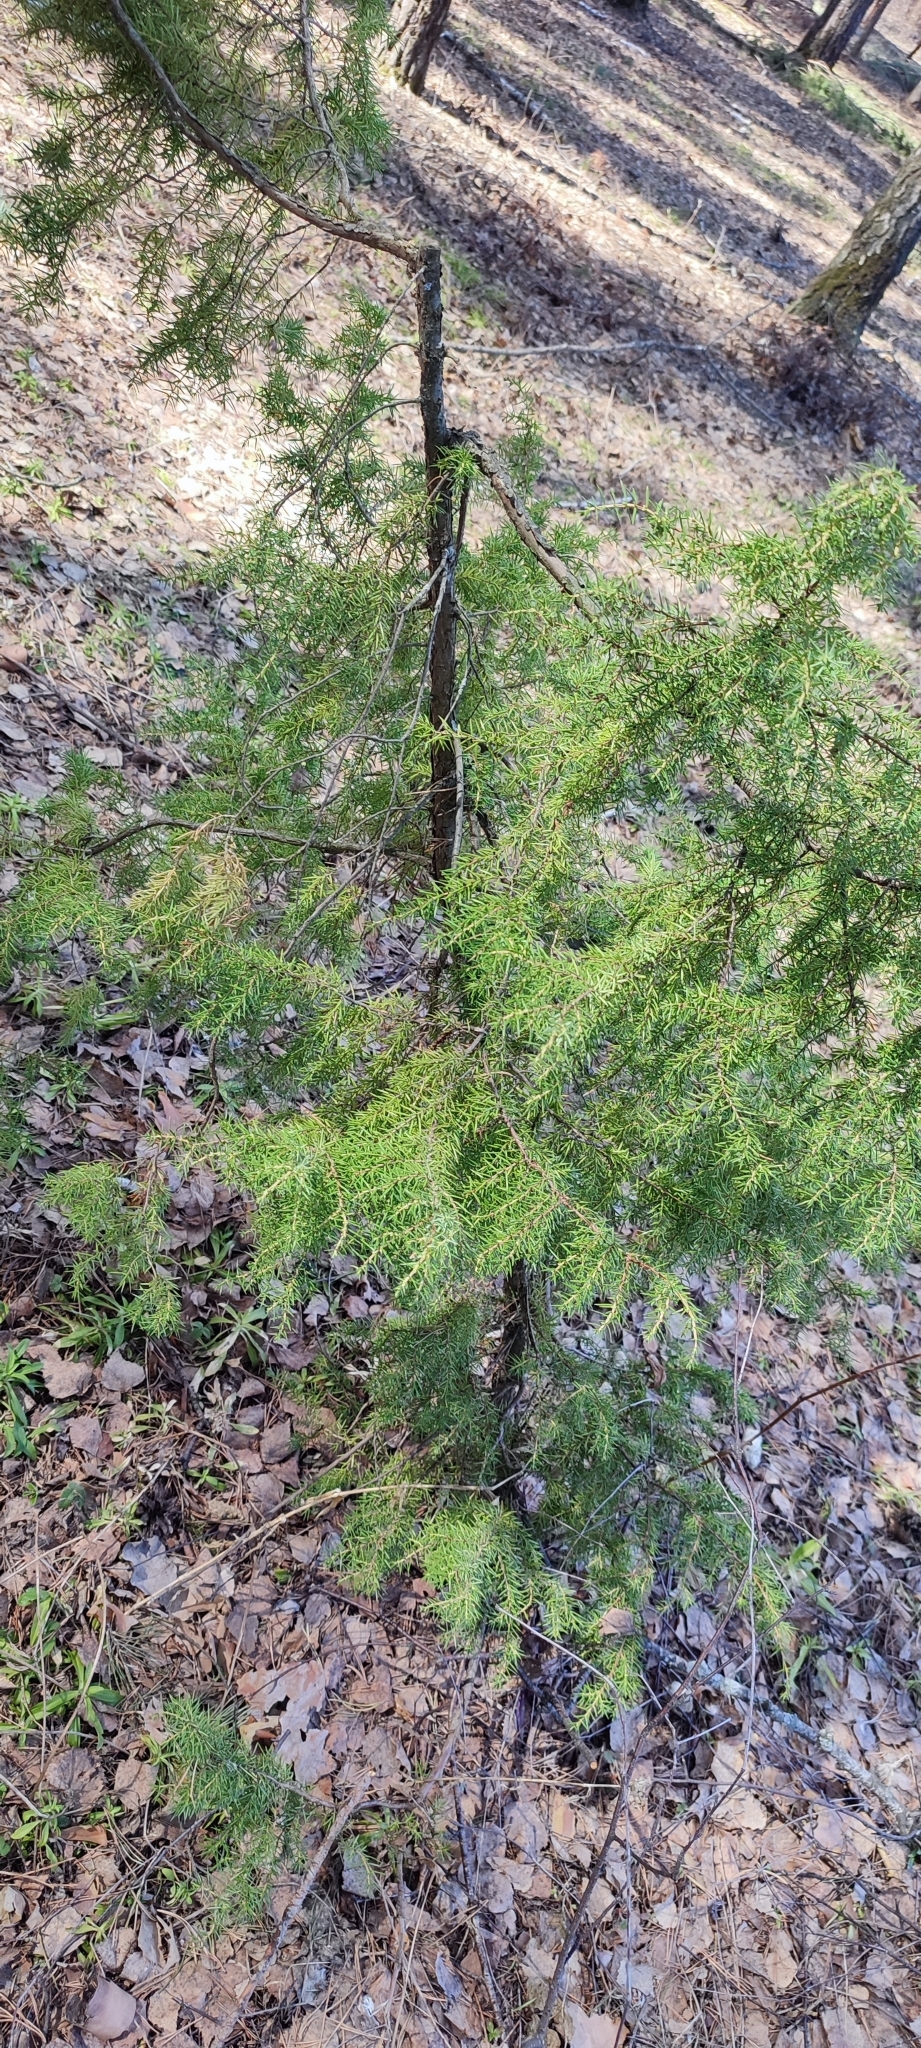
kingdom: Plantae
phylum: Tracheophyta
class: Pinopsida
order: Pinales
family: Cupressaceae
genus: Juniperus
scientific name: Juniperus communis
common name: Common juniper
